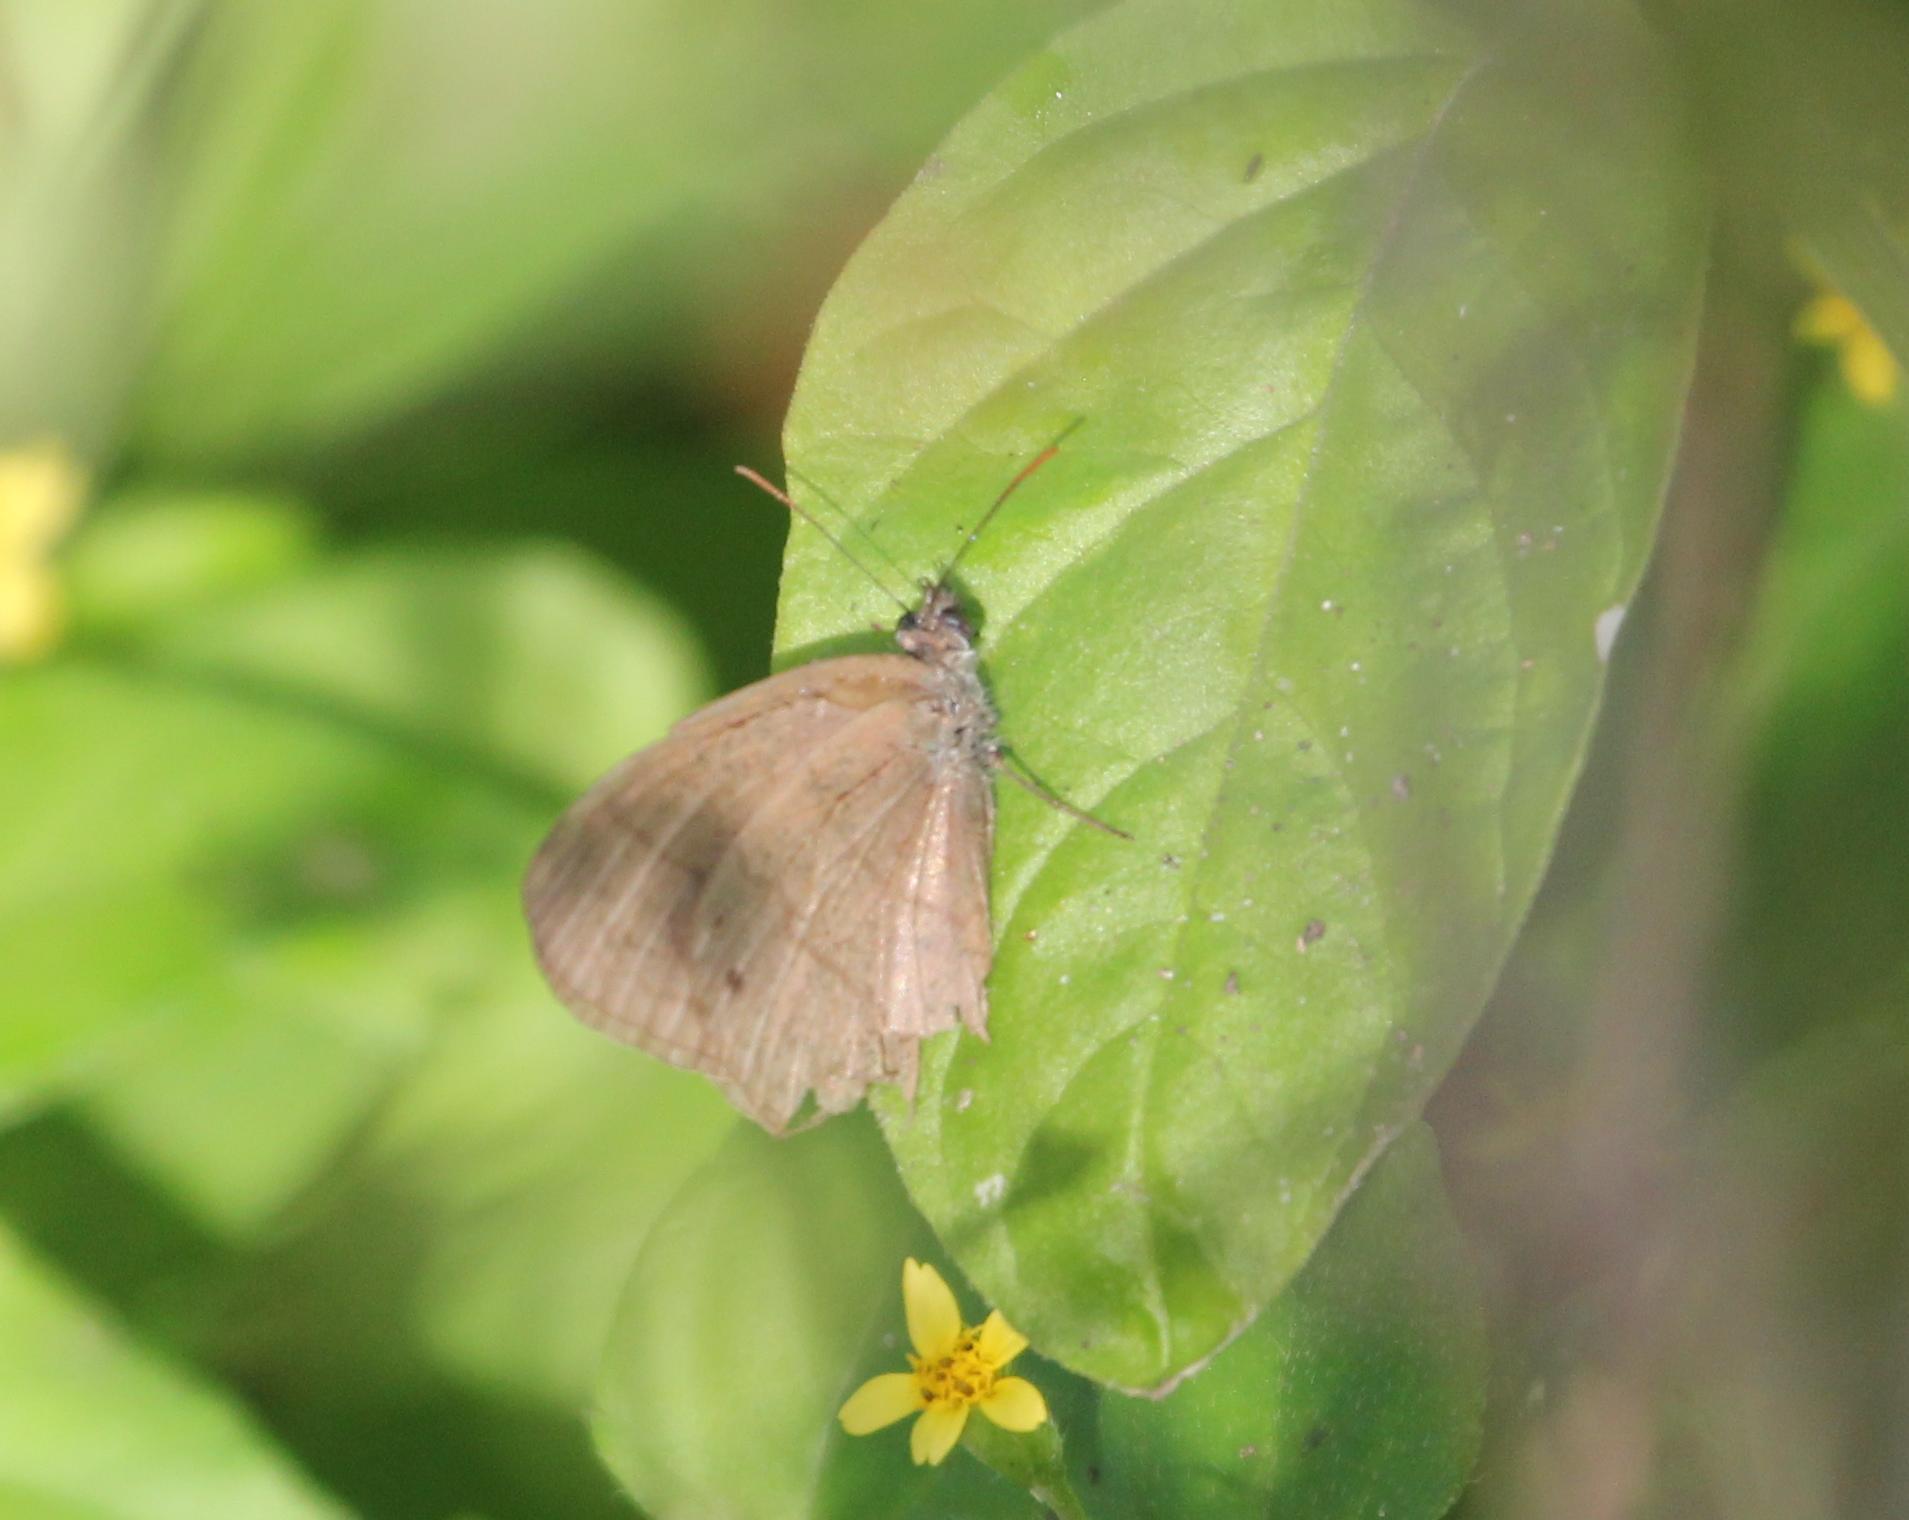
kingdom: Animalia
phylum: Arthropoda
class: Insecta
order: Lepidoptera
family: Nymphalidae
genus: Hermeuptychia
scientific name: Hermeuptychia hermybius
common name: South texas satyr
